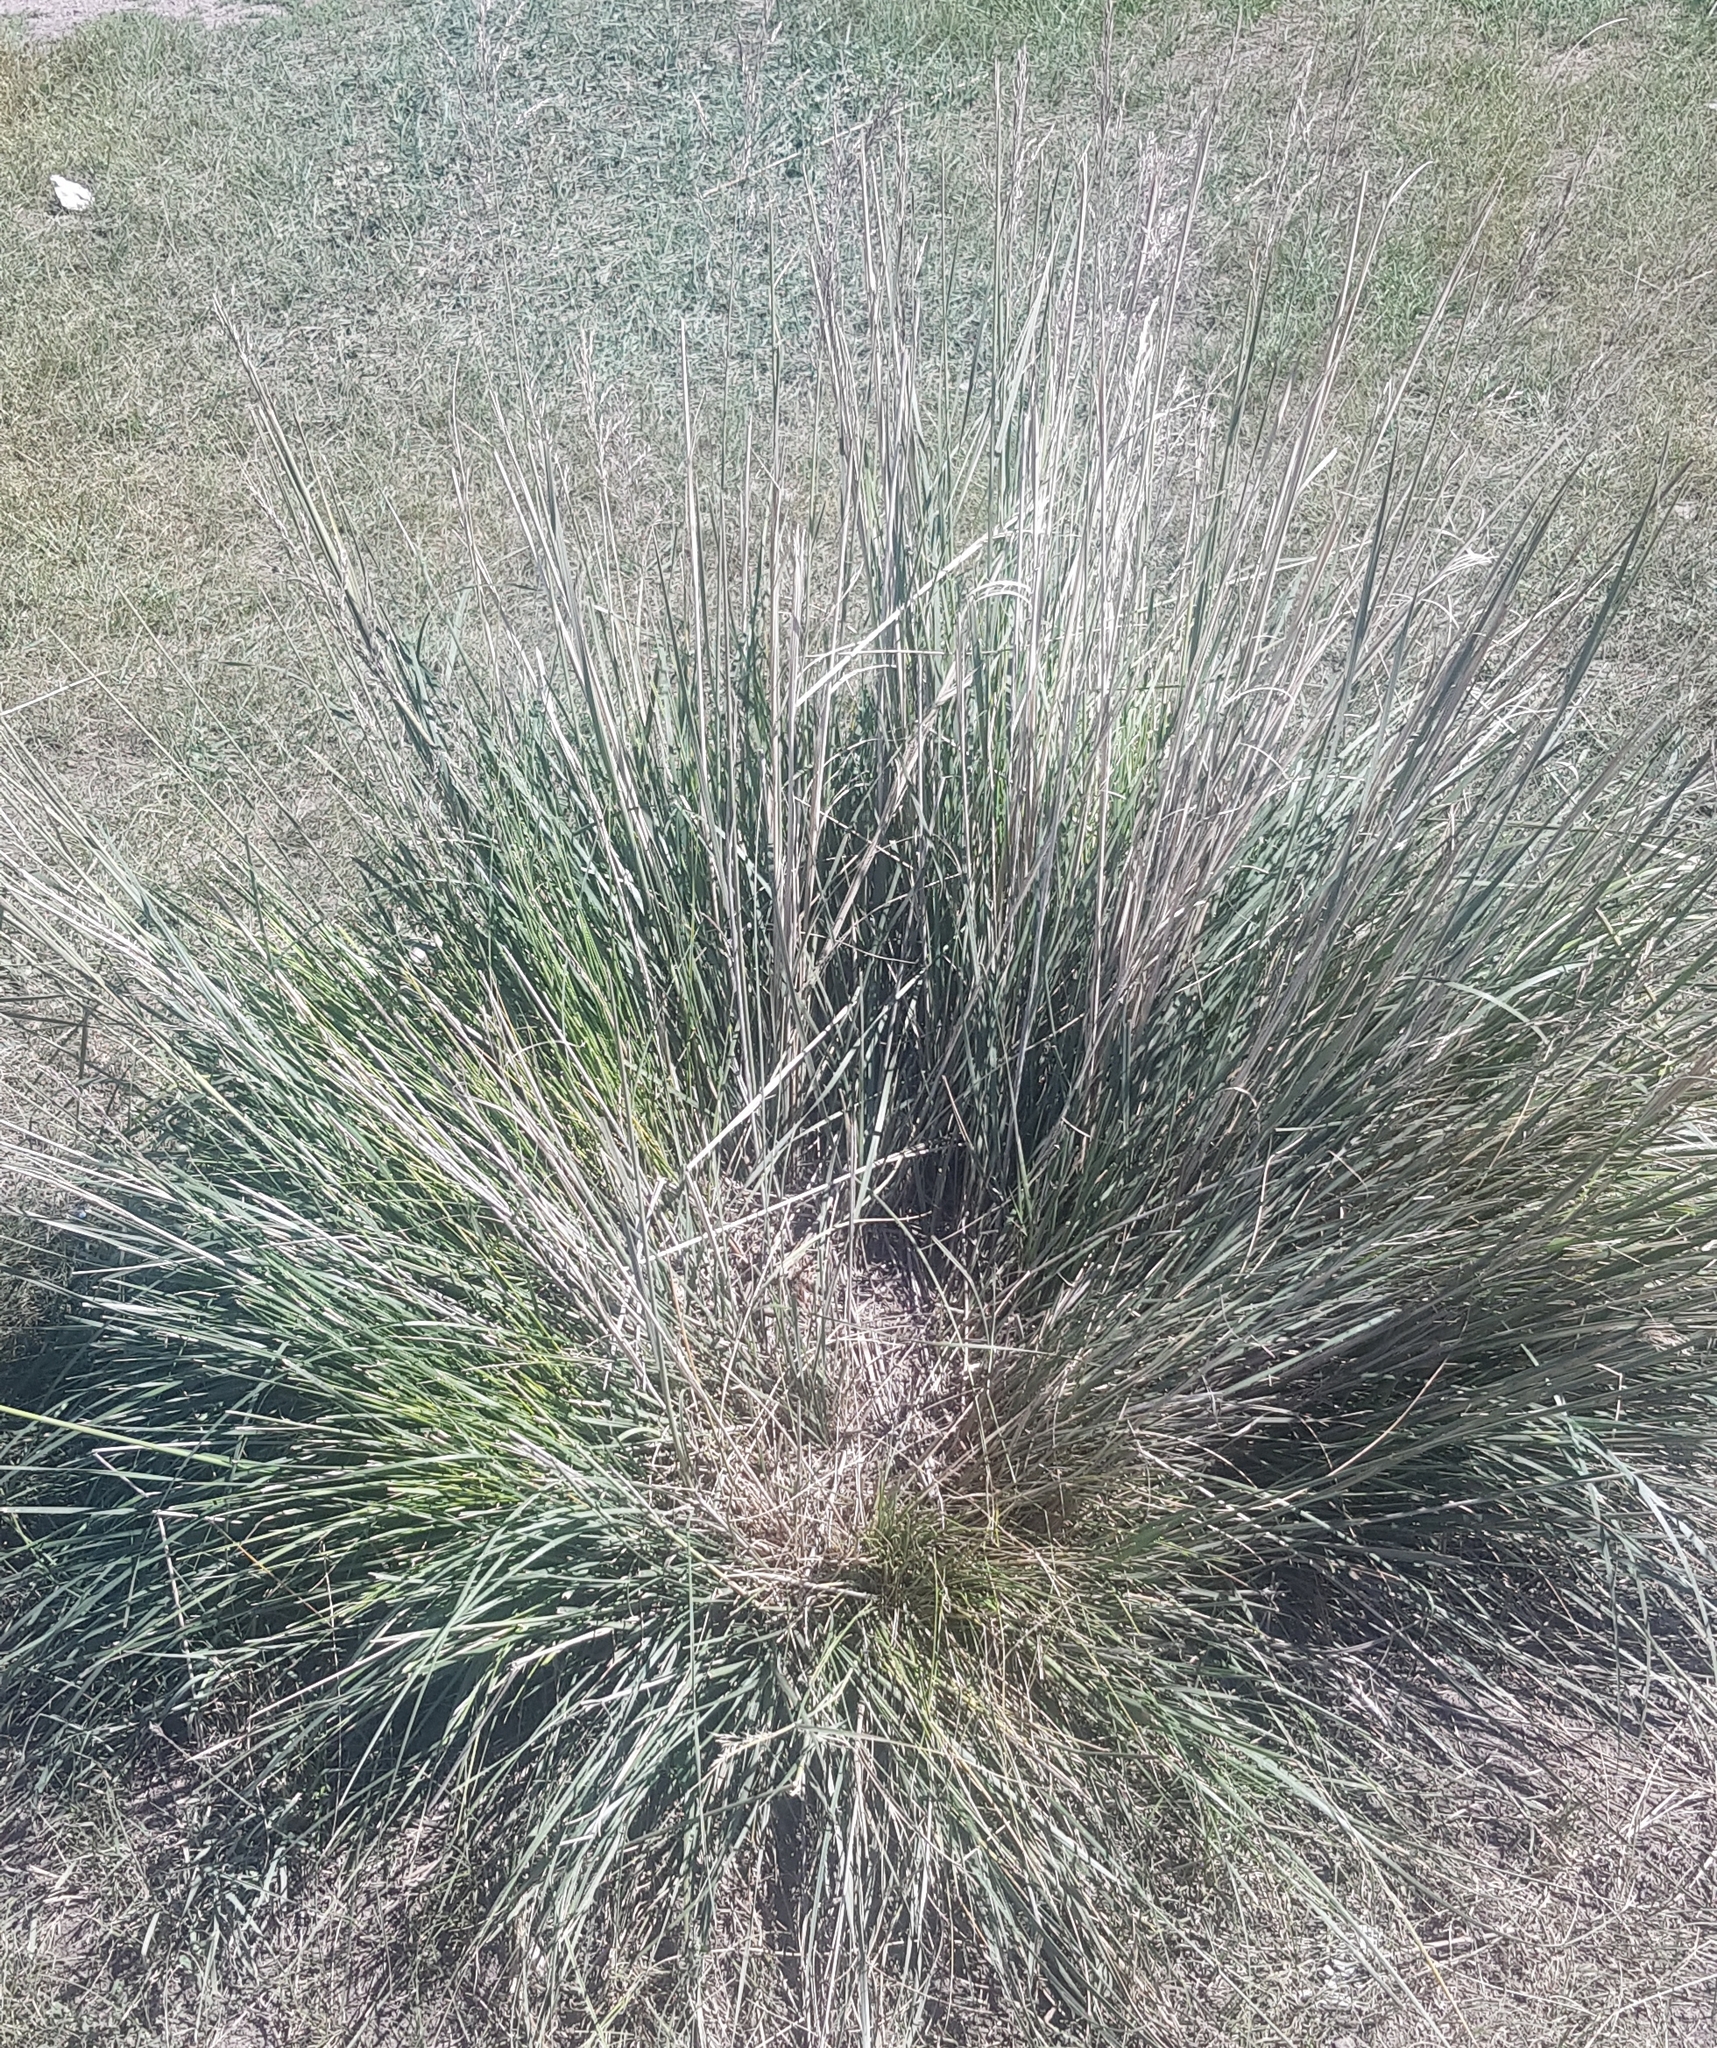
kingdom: Plantae
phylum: Tracheophyta
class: Liliopsida
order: Poales
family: Poaceae
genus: Neotrinia
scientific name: Neotrinia splendens
